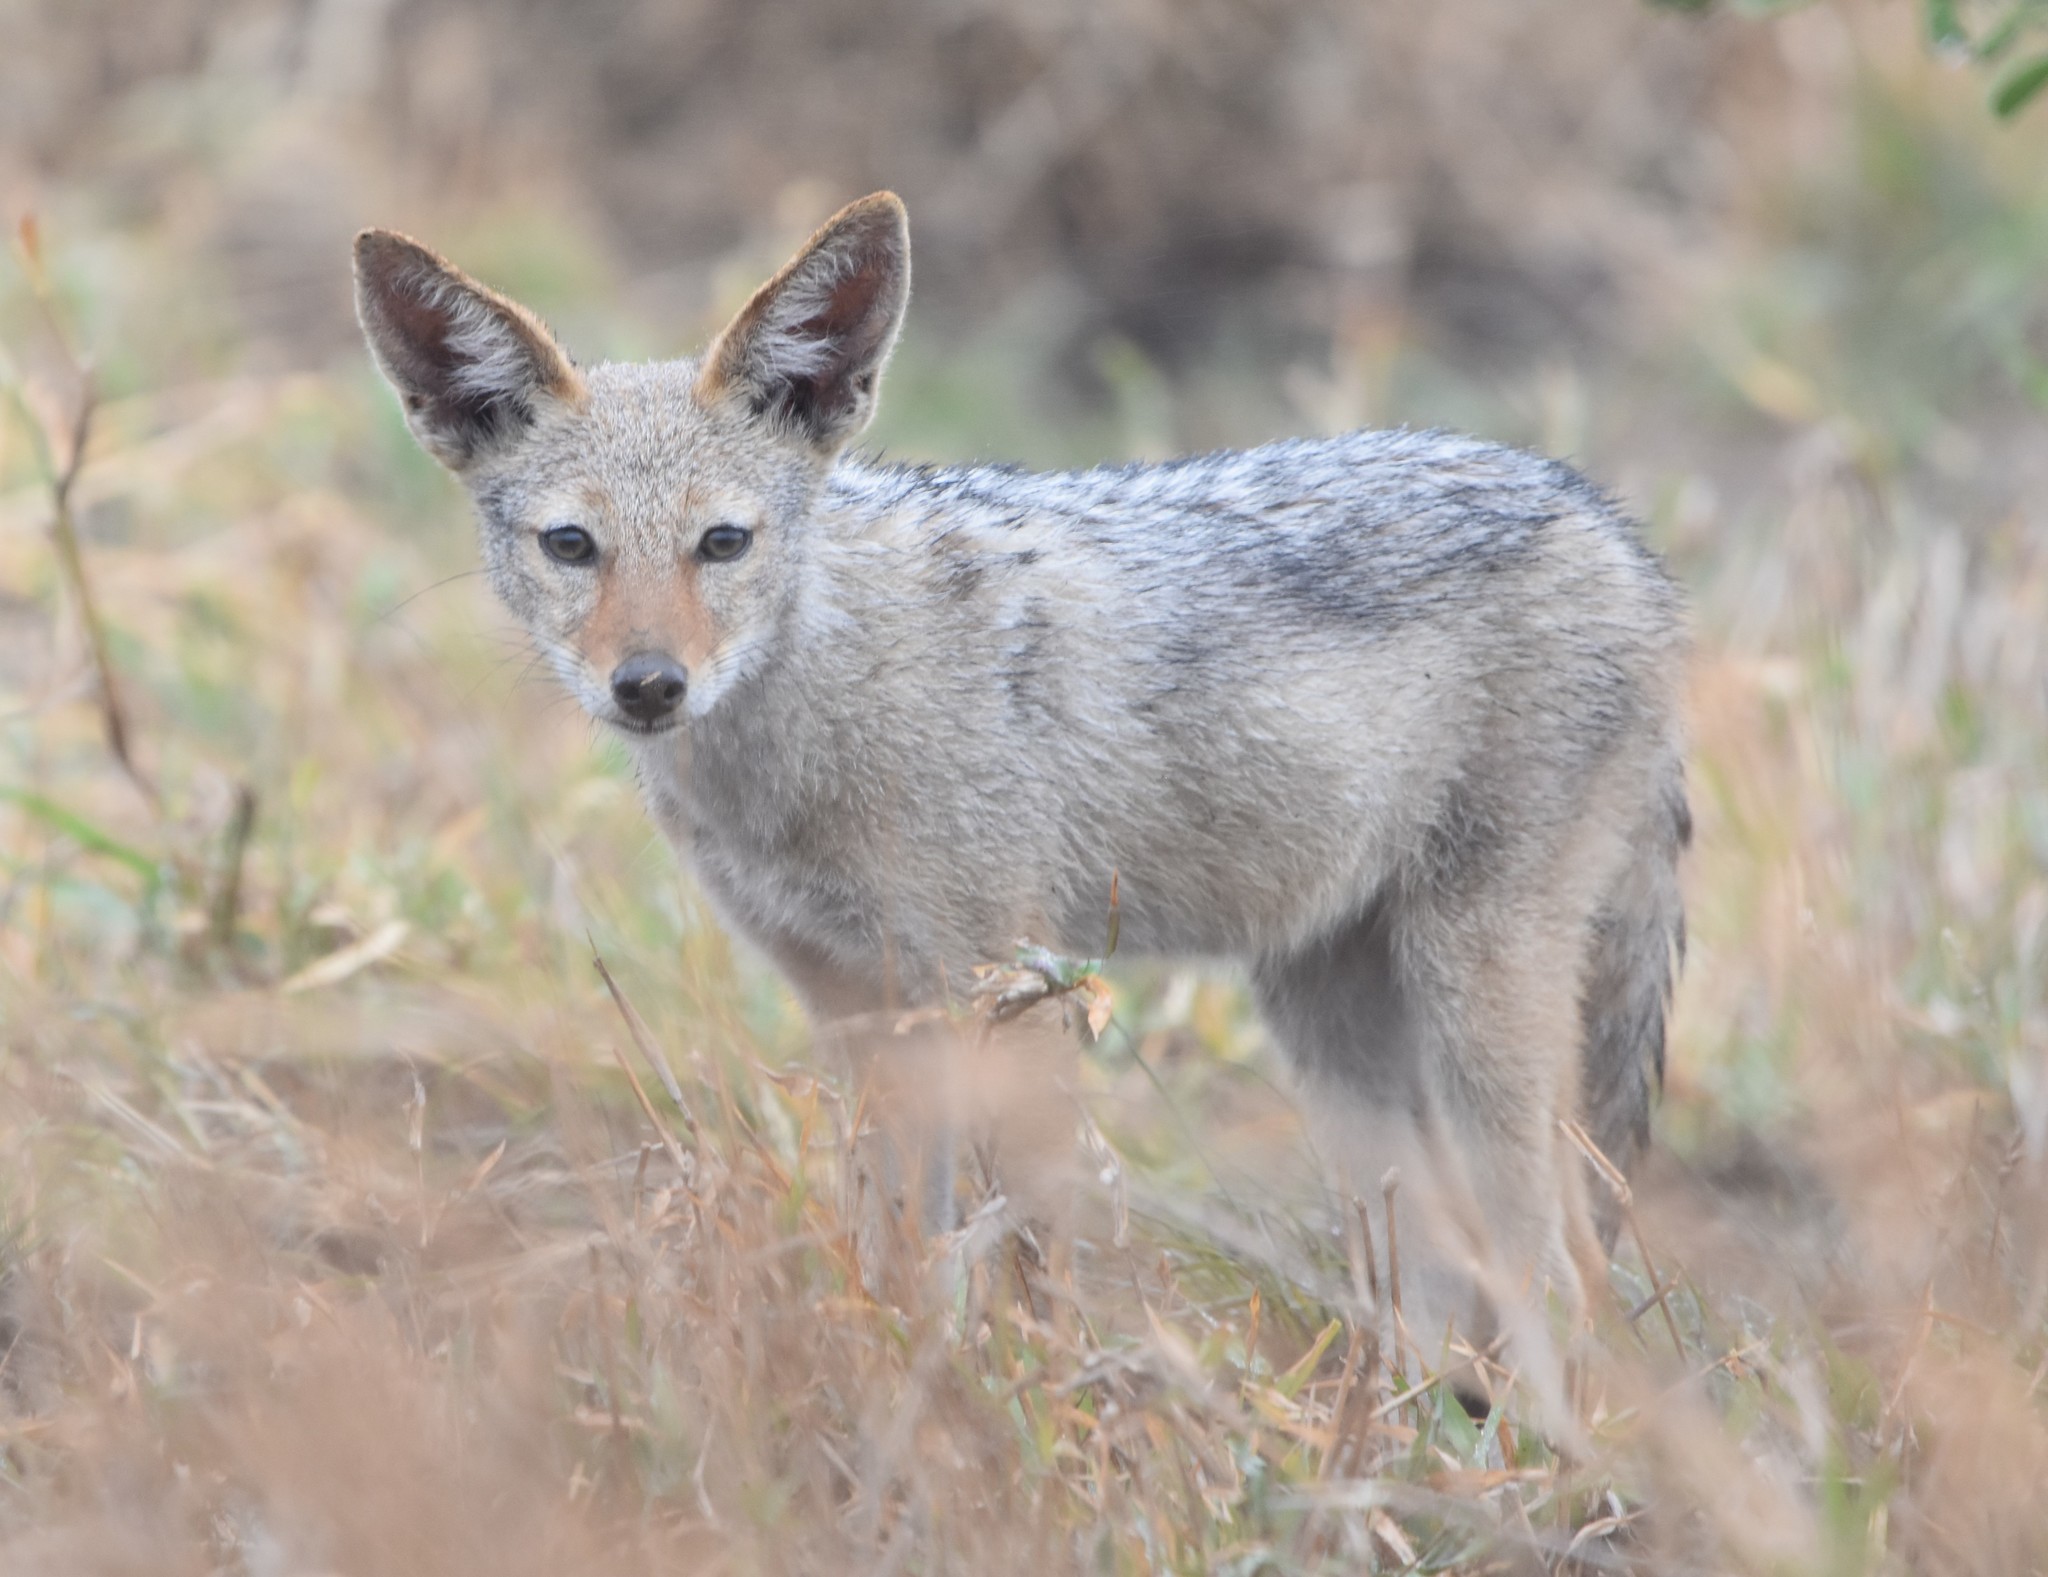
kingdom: Animalia
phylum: Chordata
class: Mammalia
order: Carnivora
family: Canidae
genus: Lupulella
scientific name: Lupulella
